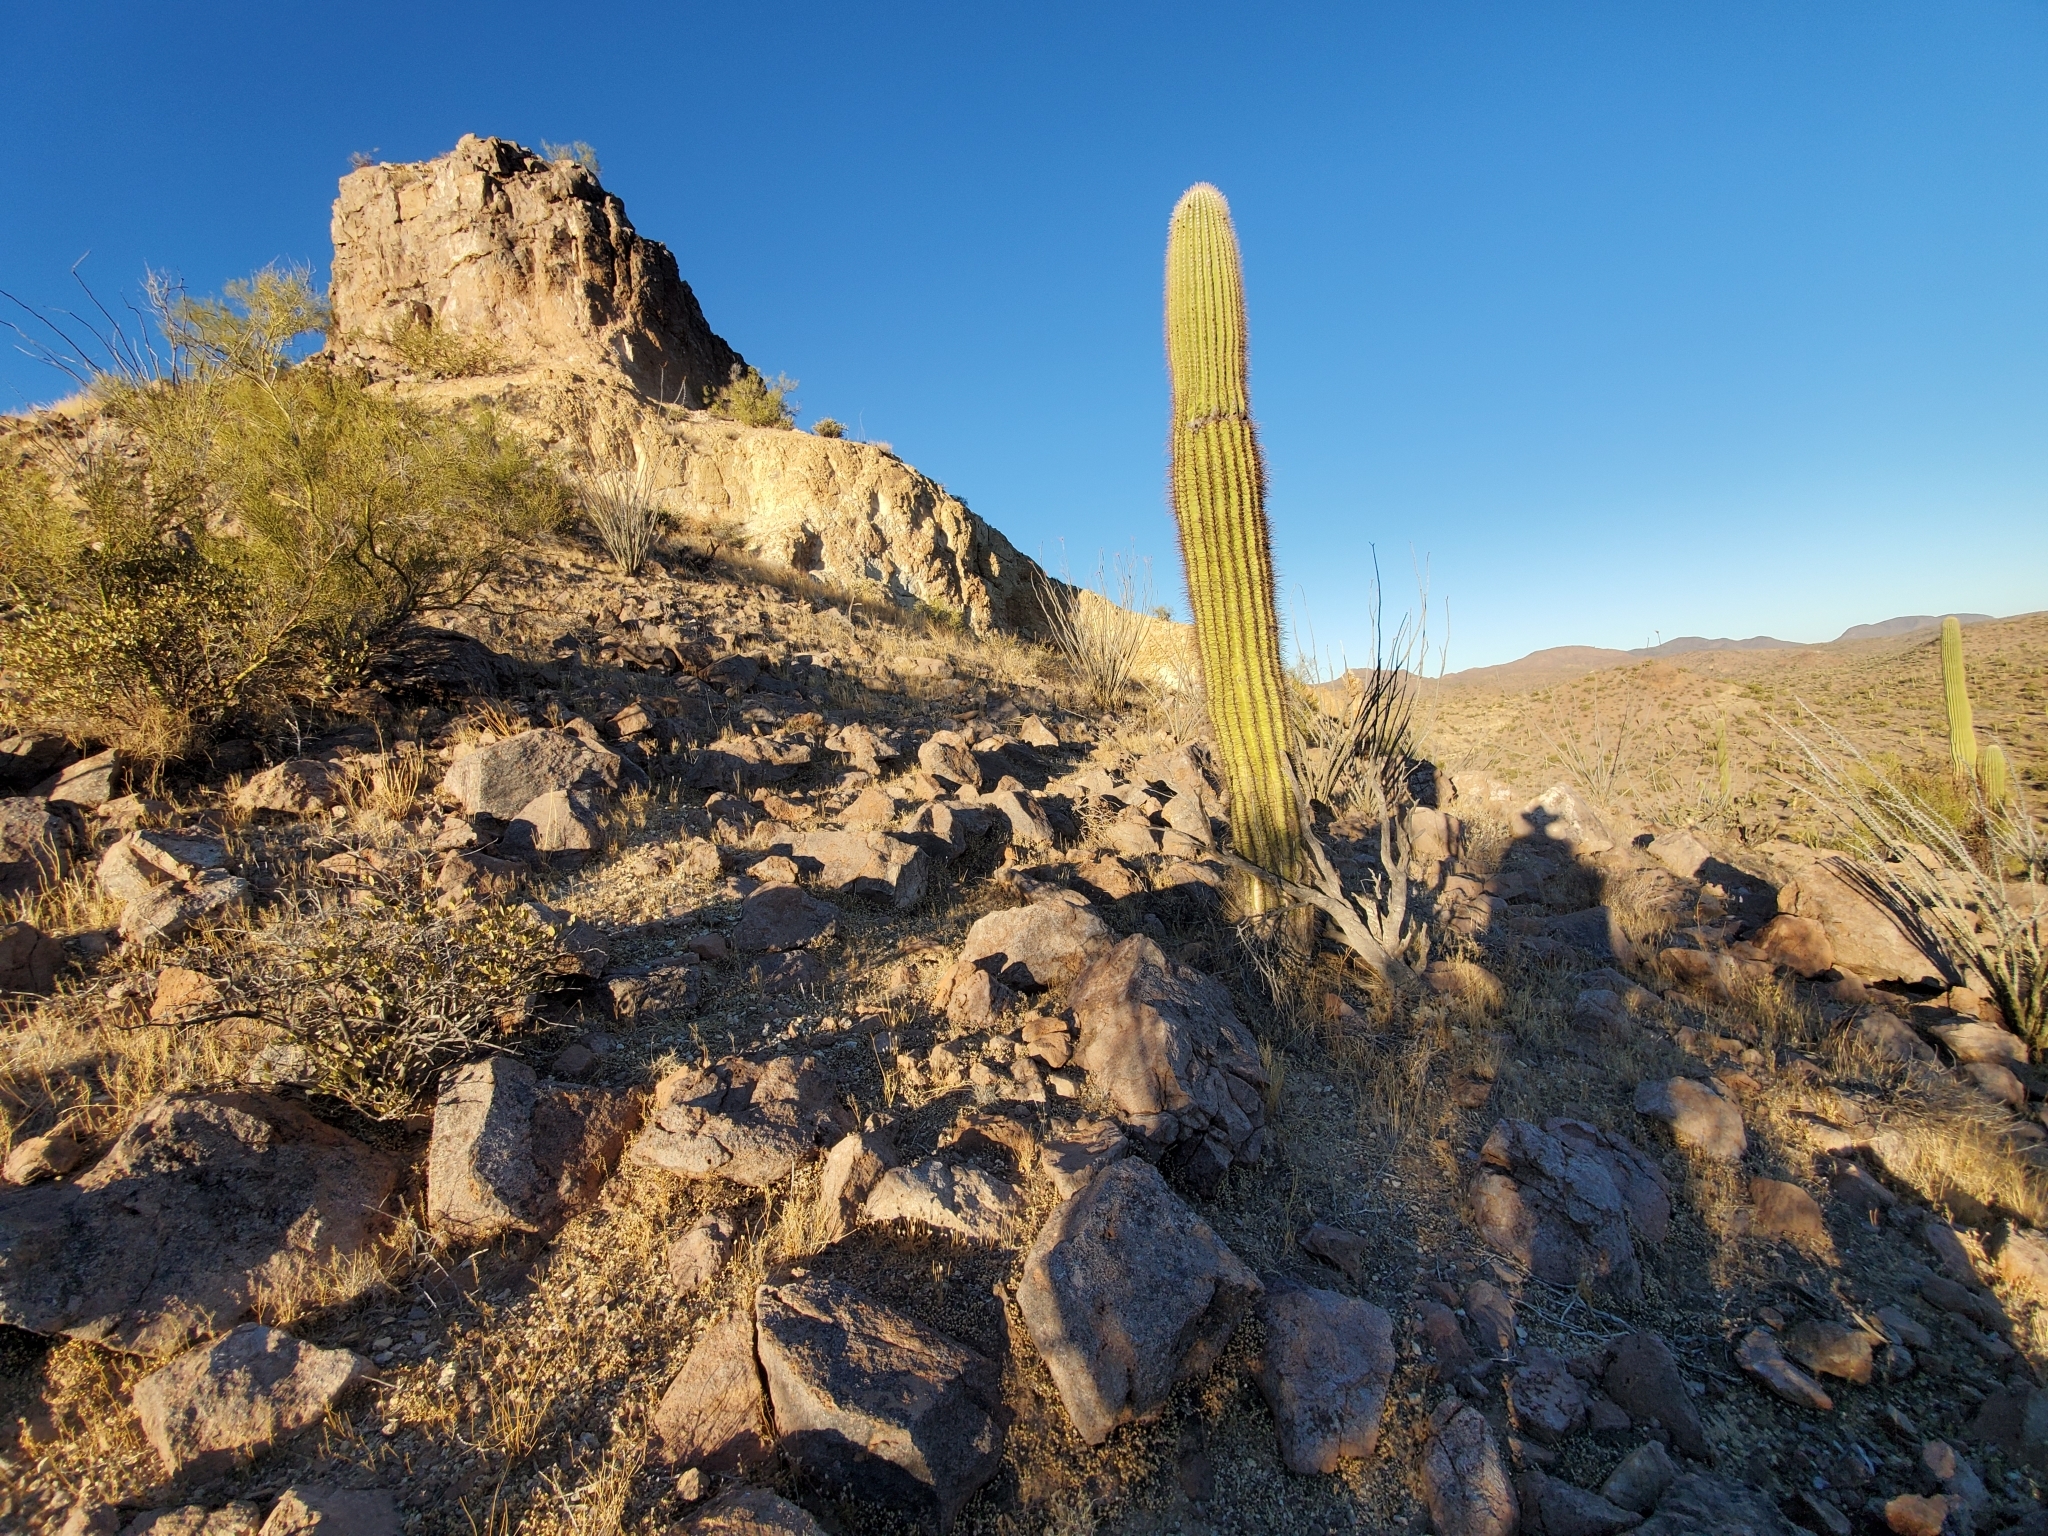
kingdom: Plantae
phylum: Tracheophyta
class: Magnoliopsida
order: Caryophyllales
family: Cactaceae
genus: Carnegiea
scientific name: Carnegiea gigantea
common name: Saguaro
